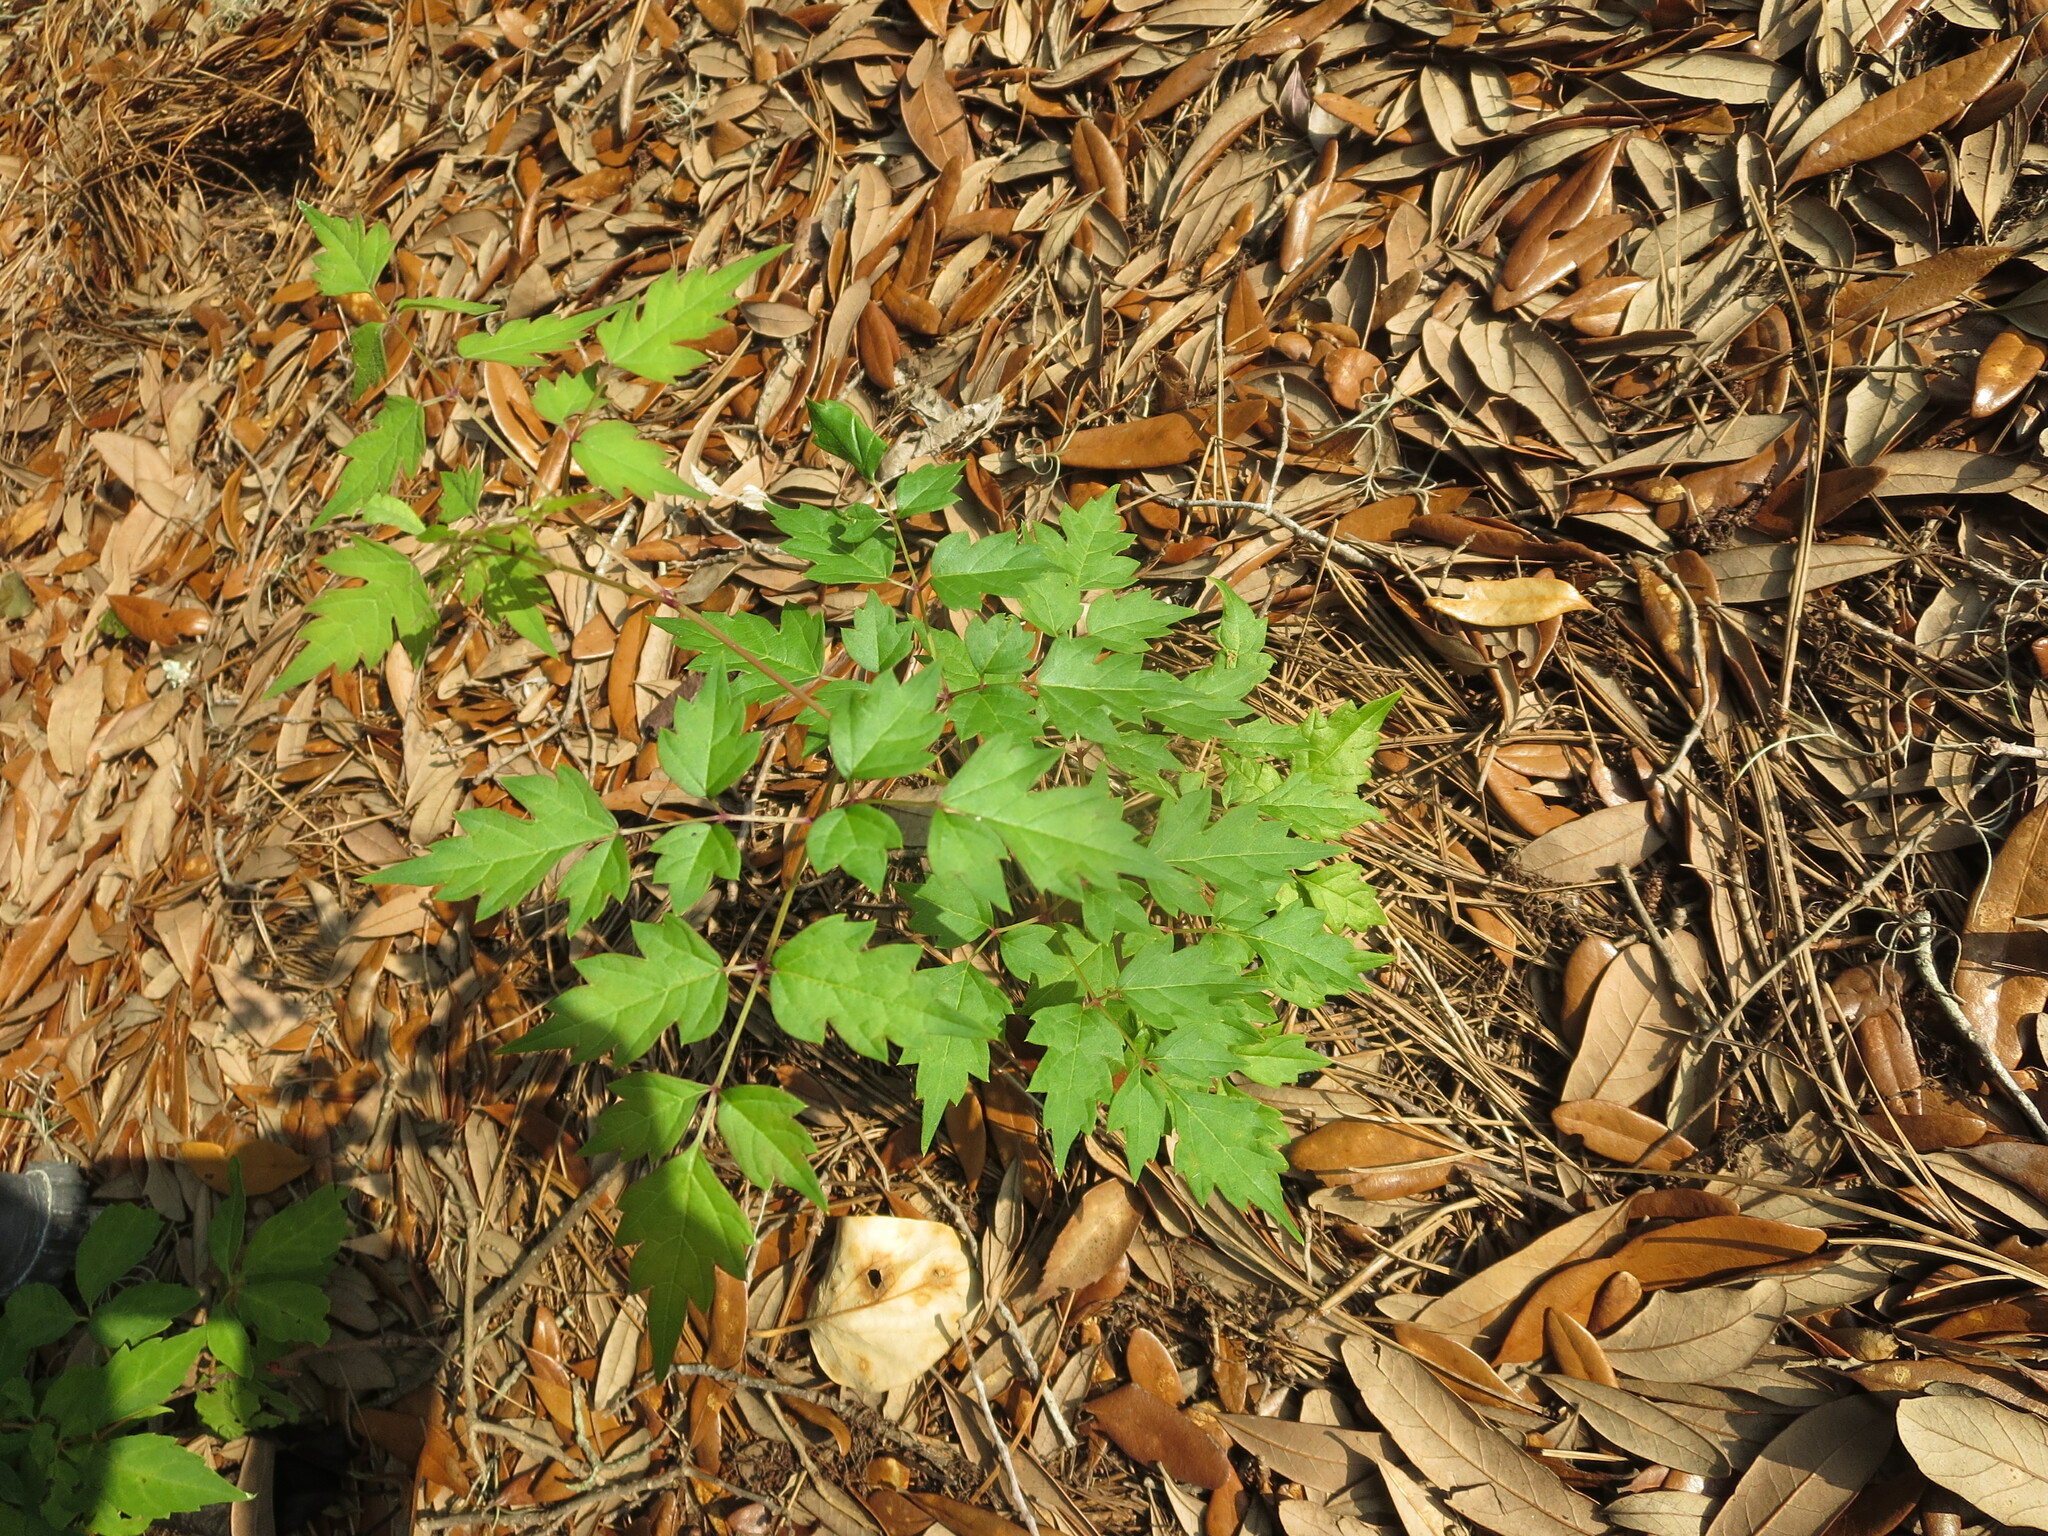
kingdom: Plantae
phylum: Tracheophyta
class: Magnoliopsida
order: Vitales
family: Vitaceae
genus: Nekemias
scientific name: Nekemias arborea
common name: Peppervine
